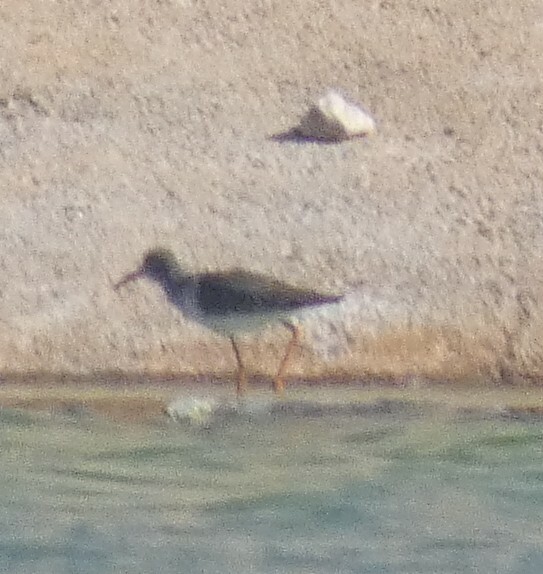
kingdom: Animalia
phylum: Chordata
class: Aves
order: Charadriiformes
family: Scolopacidae
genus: Tringa
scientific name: Tringa totanus
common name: Common redshank
